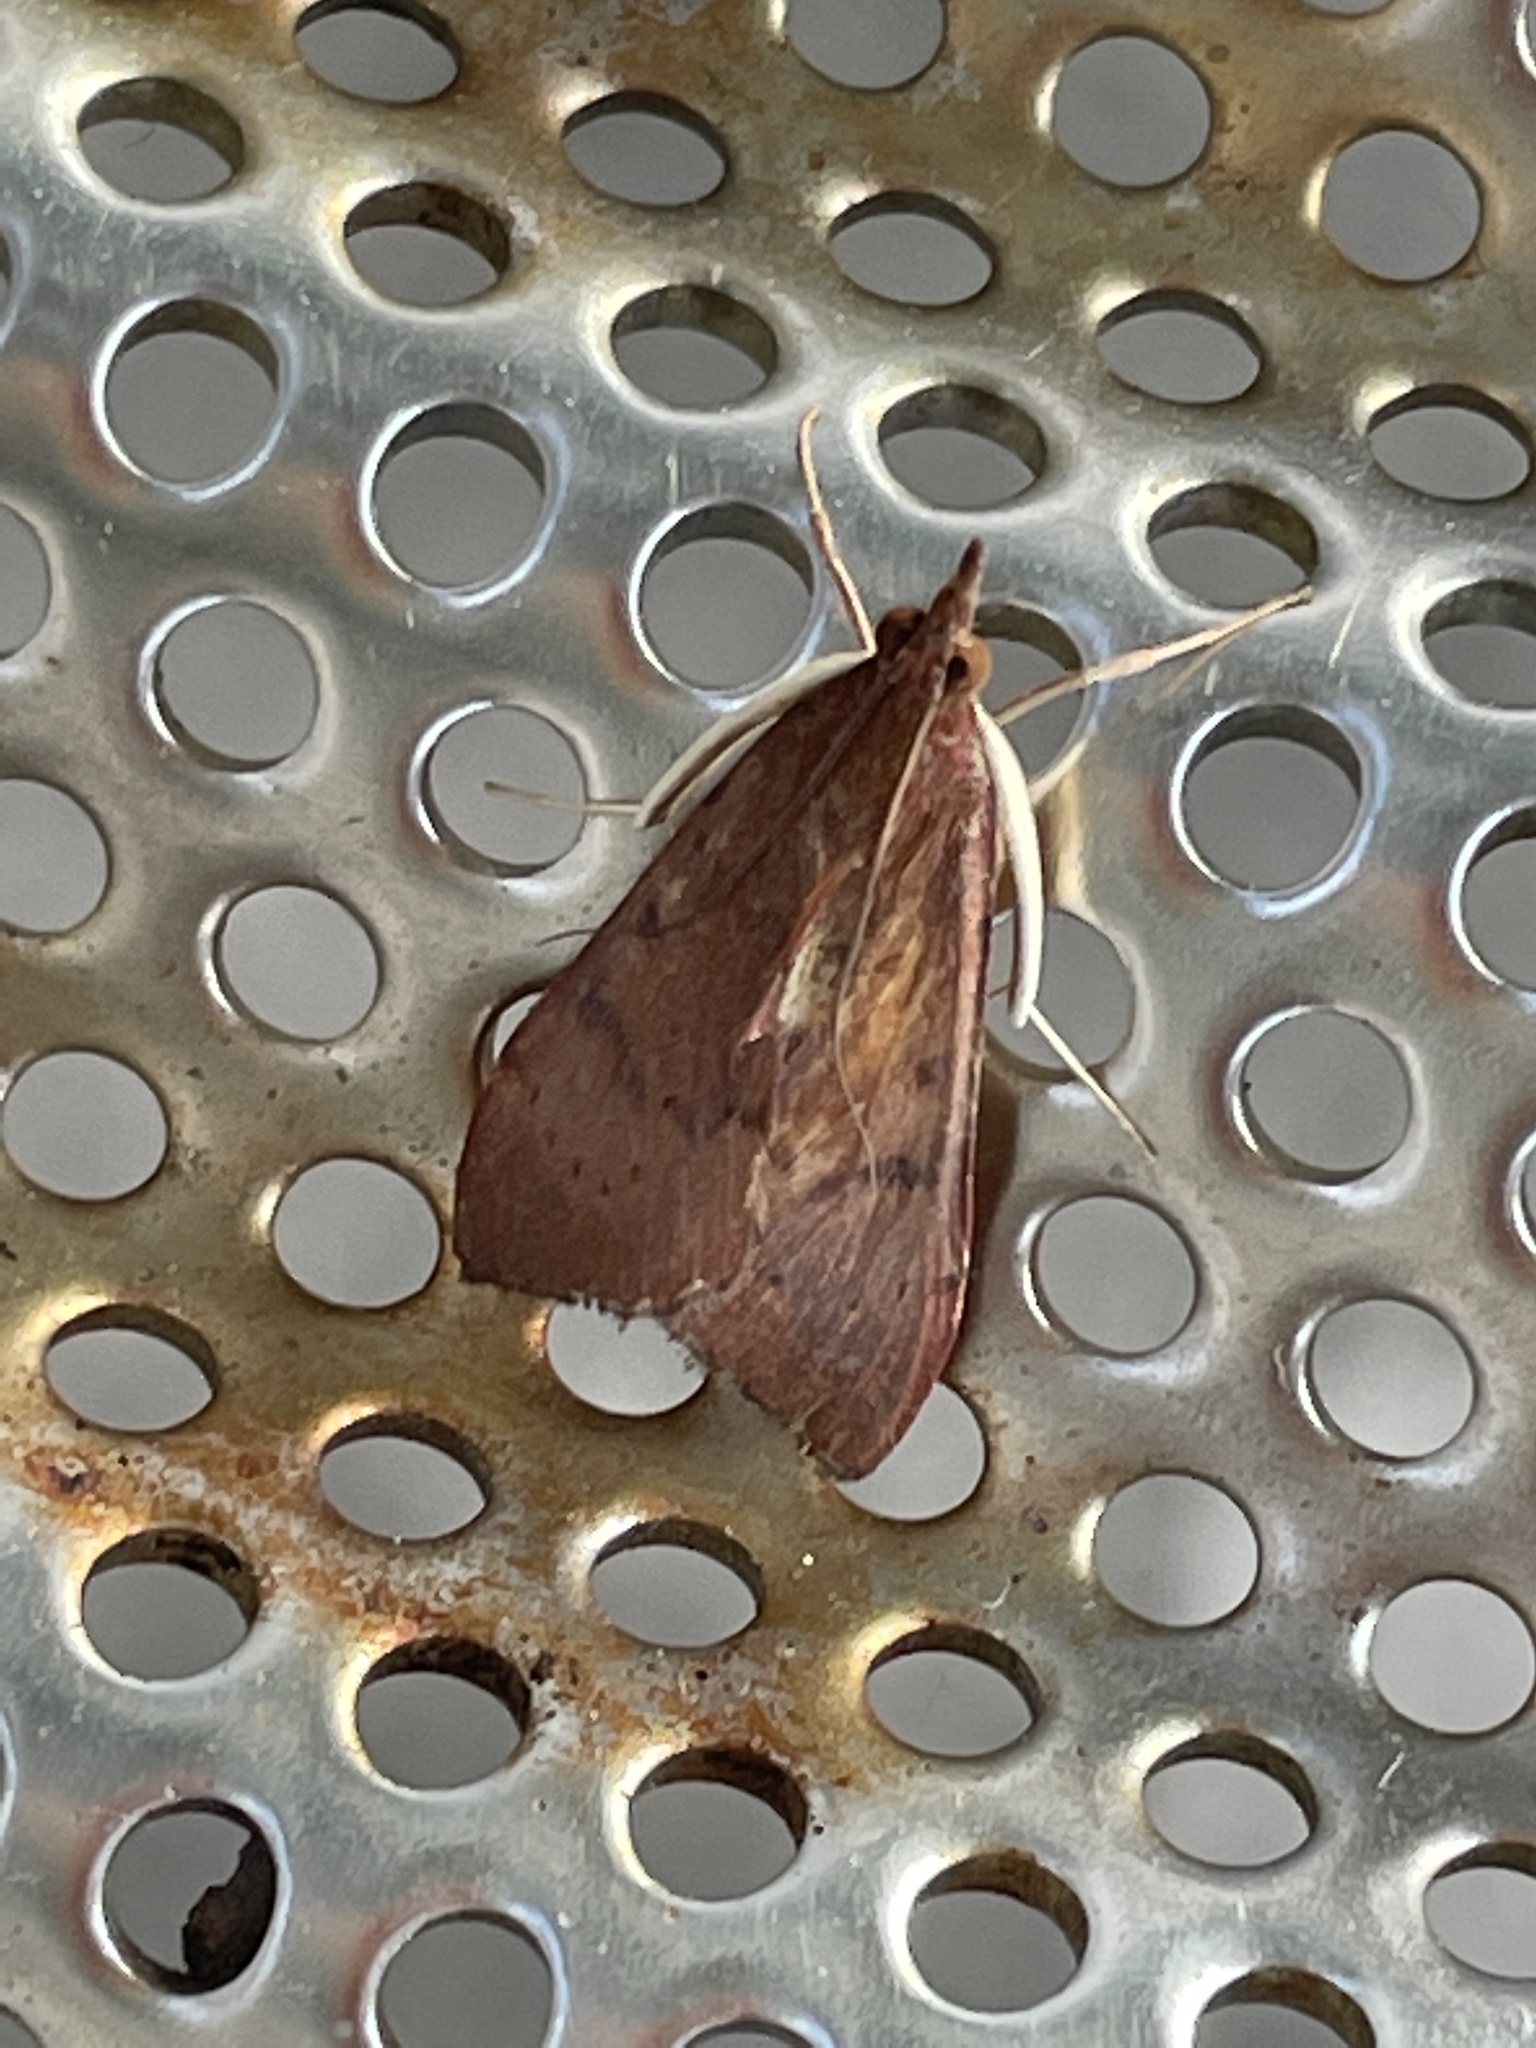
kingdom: Animalia
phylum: Arthropoda
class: Insecta
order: Lepidoptera
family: Crambidae
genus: Uresiphita
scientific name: Uresiphita ornithopteralis
